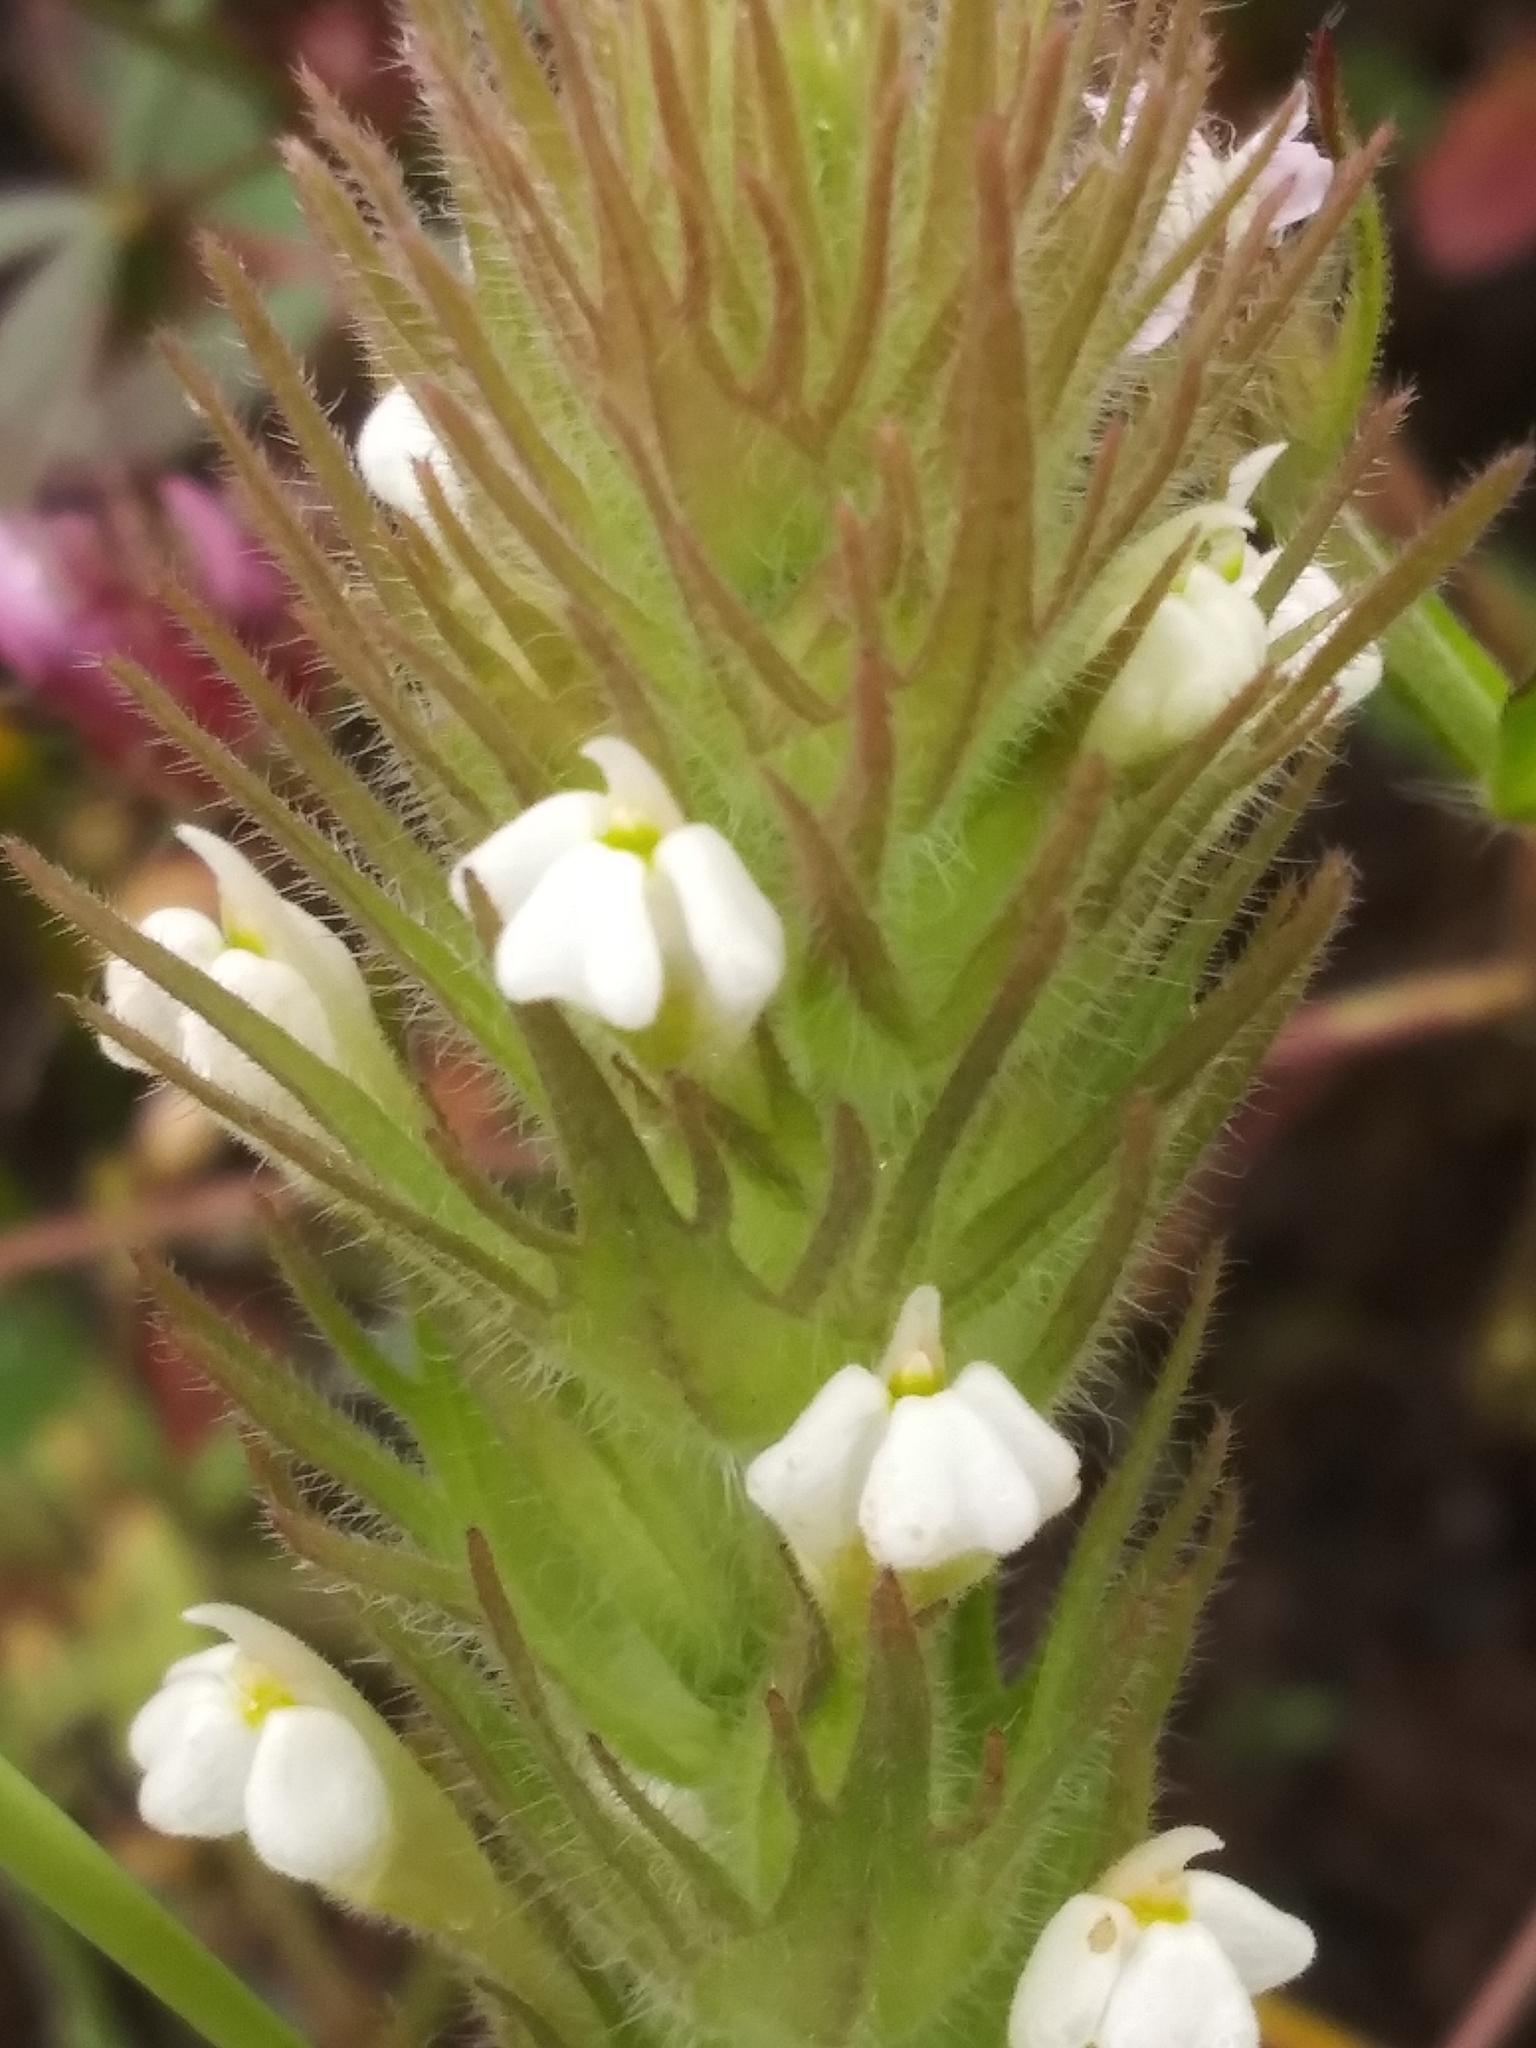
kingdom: Plantae
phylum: Tracheophyta
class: Magnoliopsida
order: Lamiales
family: Orobanchaceae
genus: Castilleja
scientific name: Castilleja tenuis
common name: Hairy indian paintbrush
